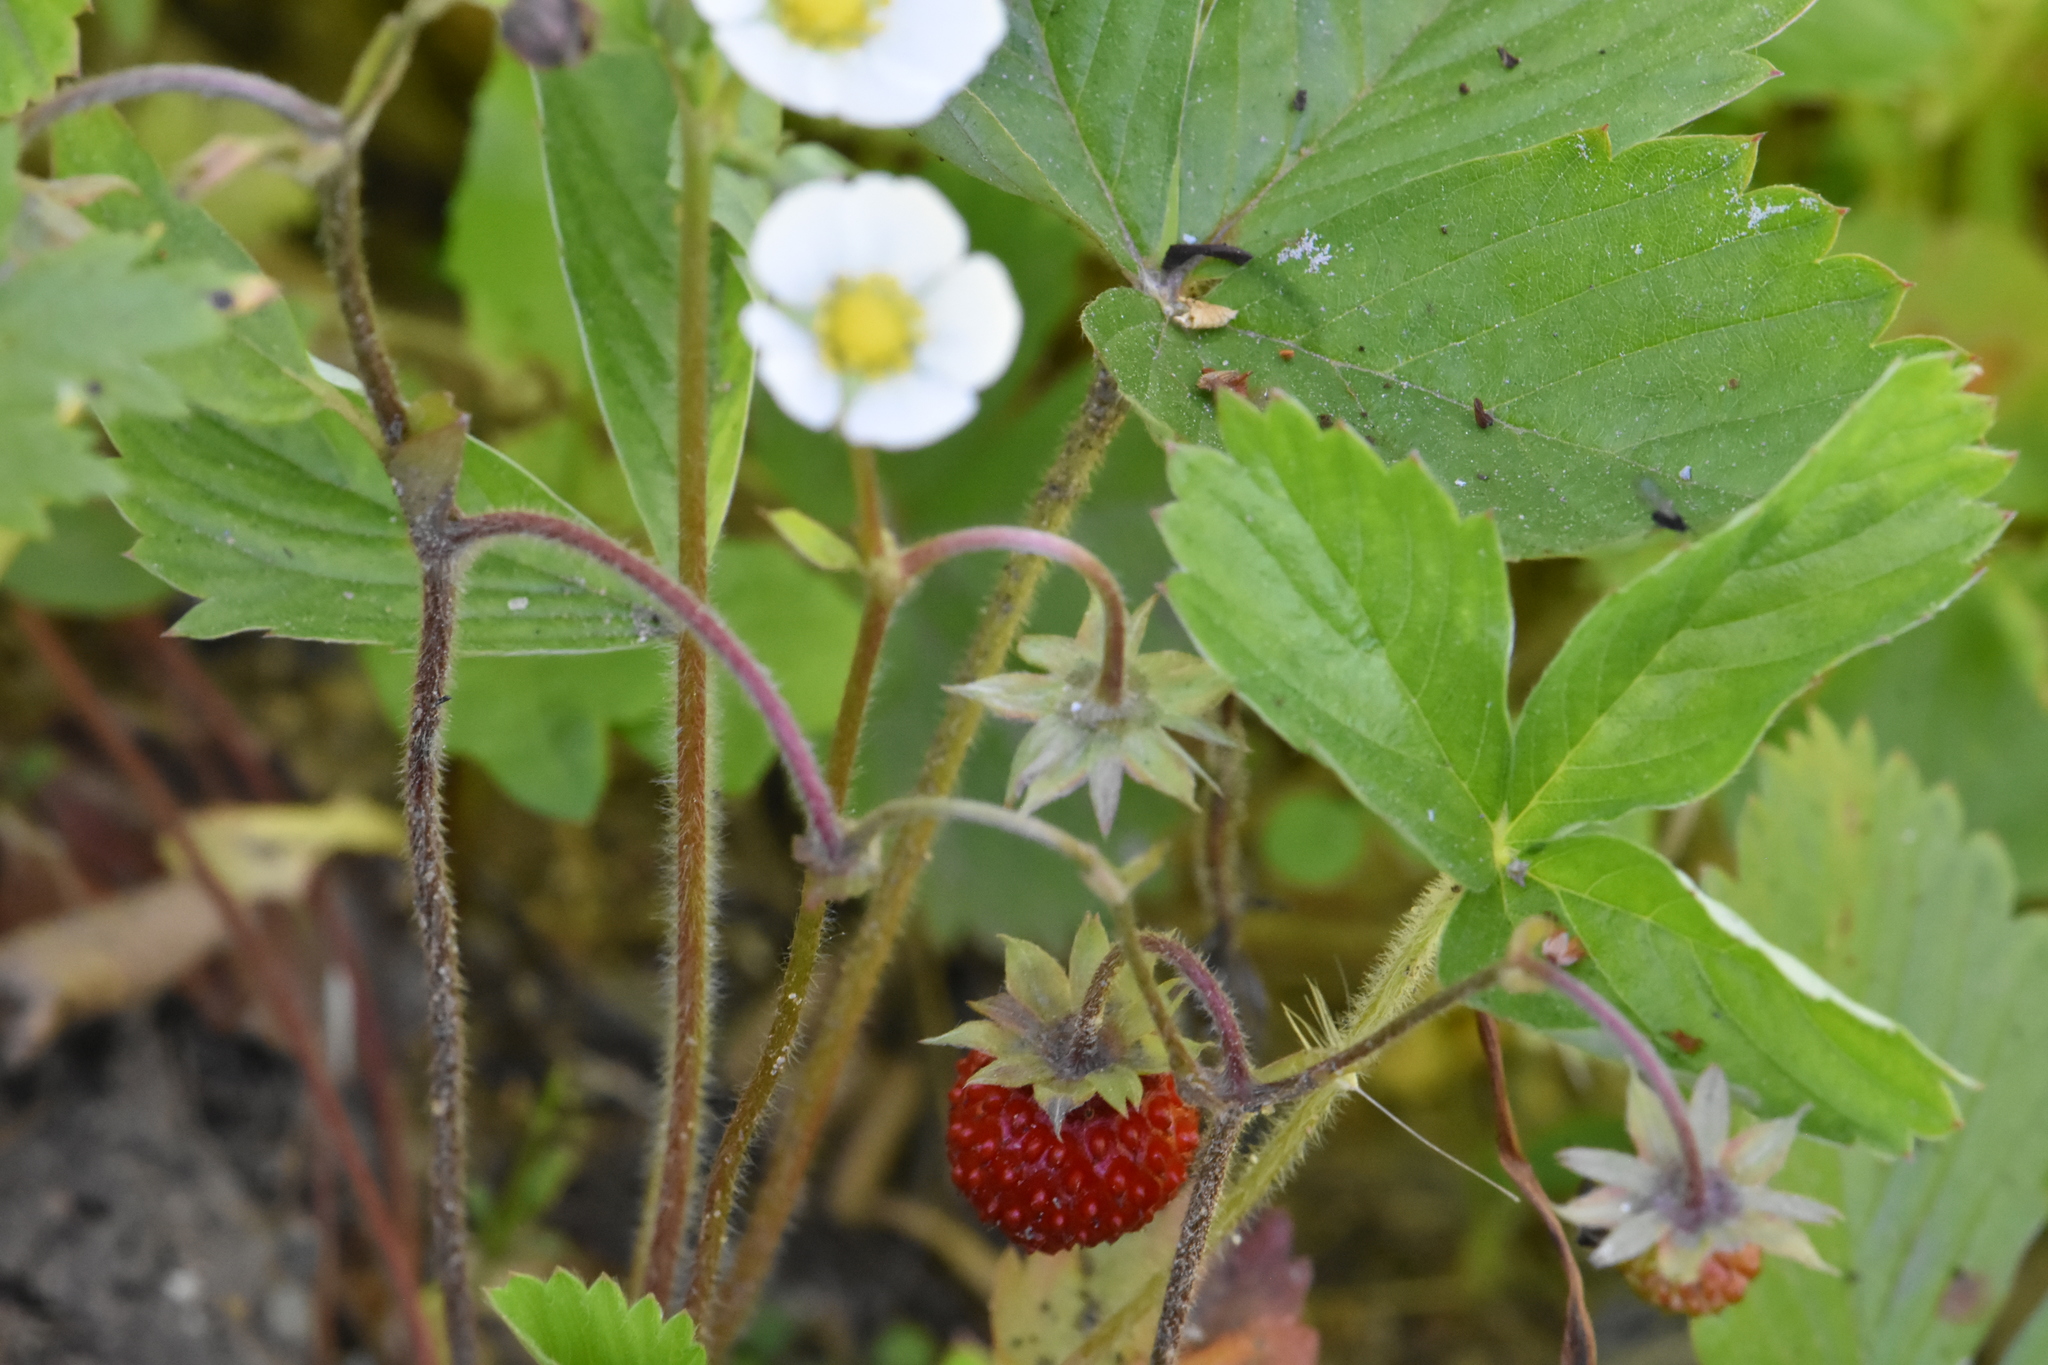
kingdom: Plantae
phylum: Tracheophyta
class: Magnoliopsida
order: Rosales
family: Rosaceae
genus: Fragaria
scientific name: Fragaria vesca
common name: Wild strawberry
